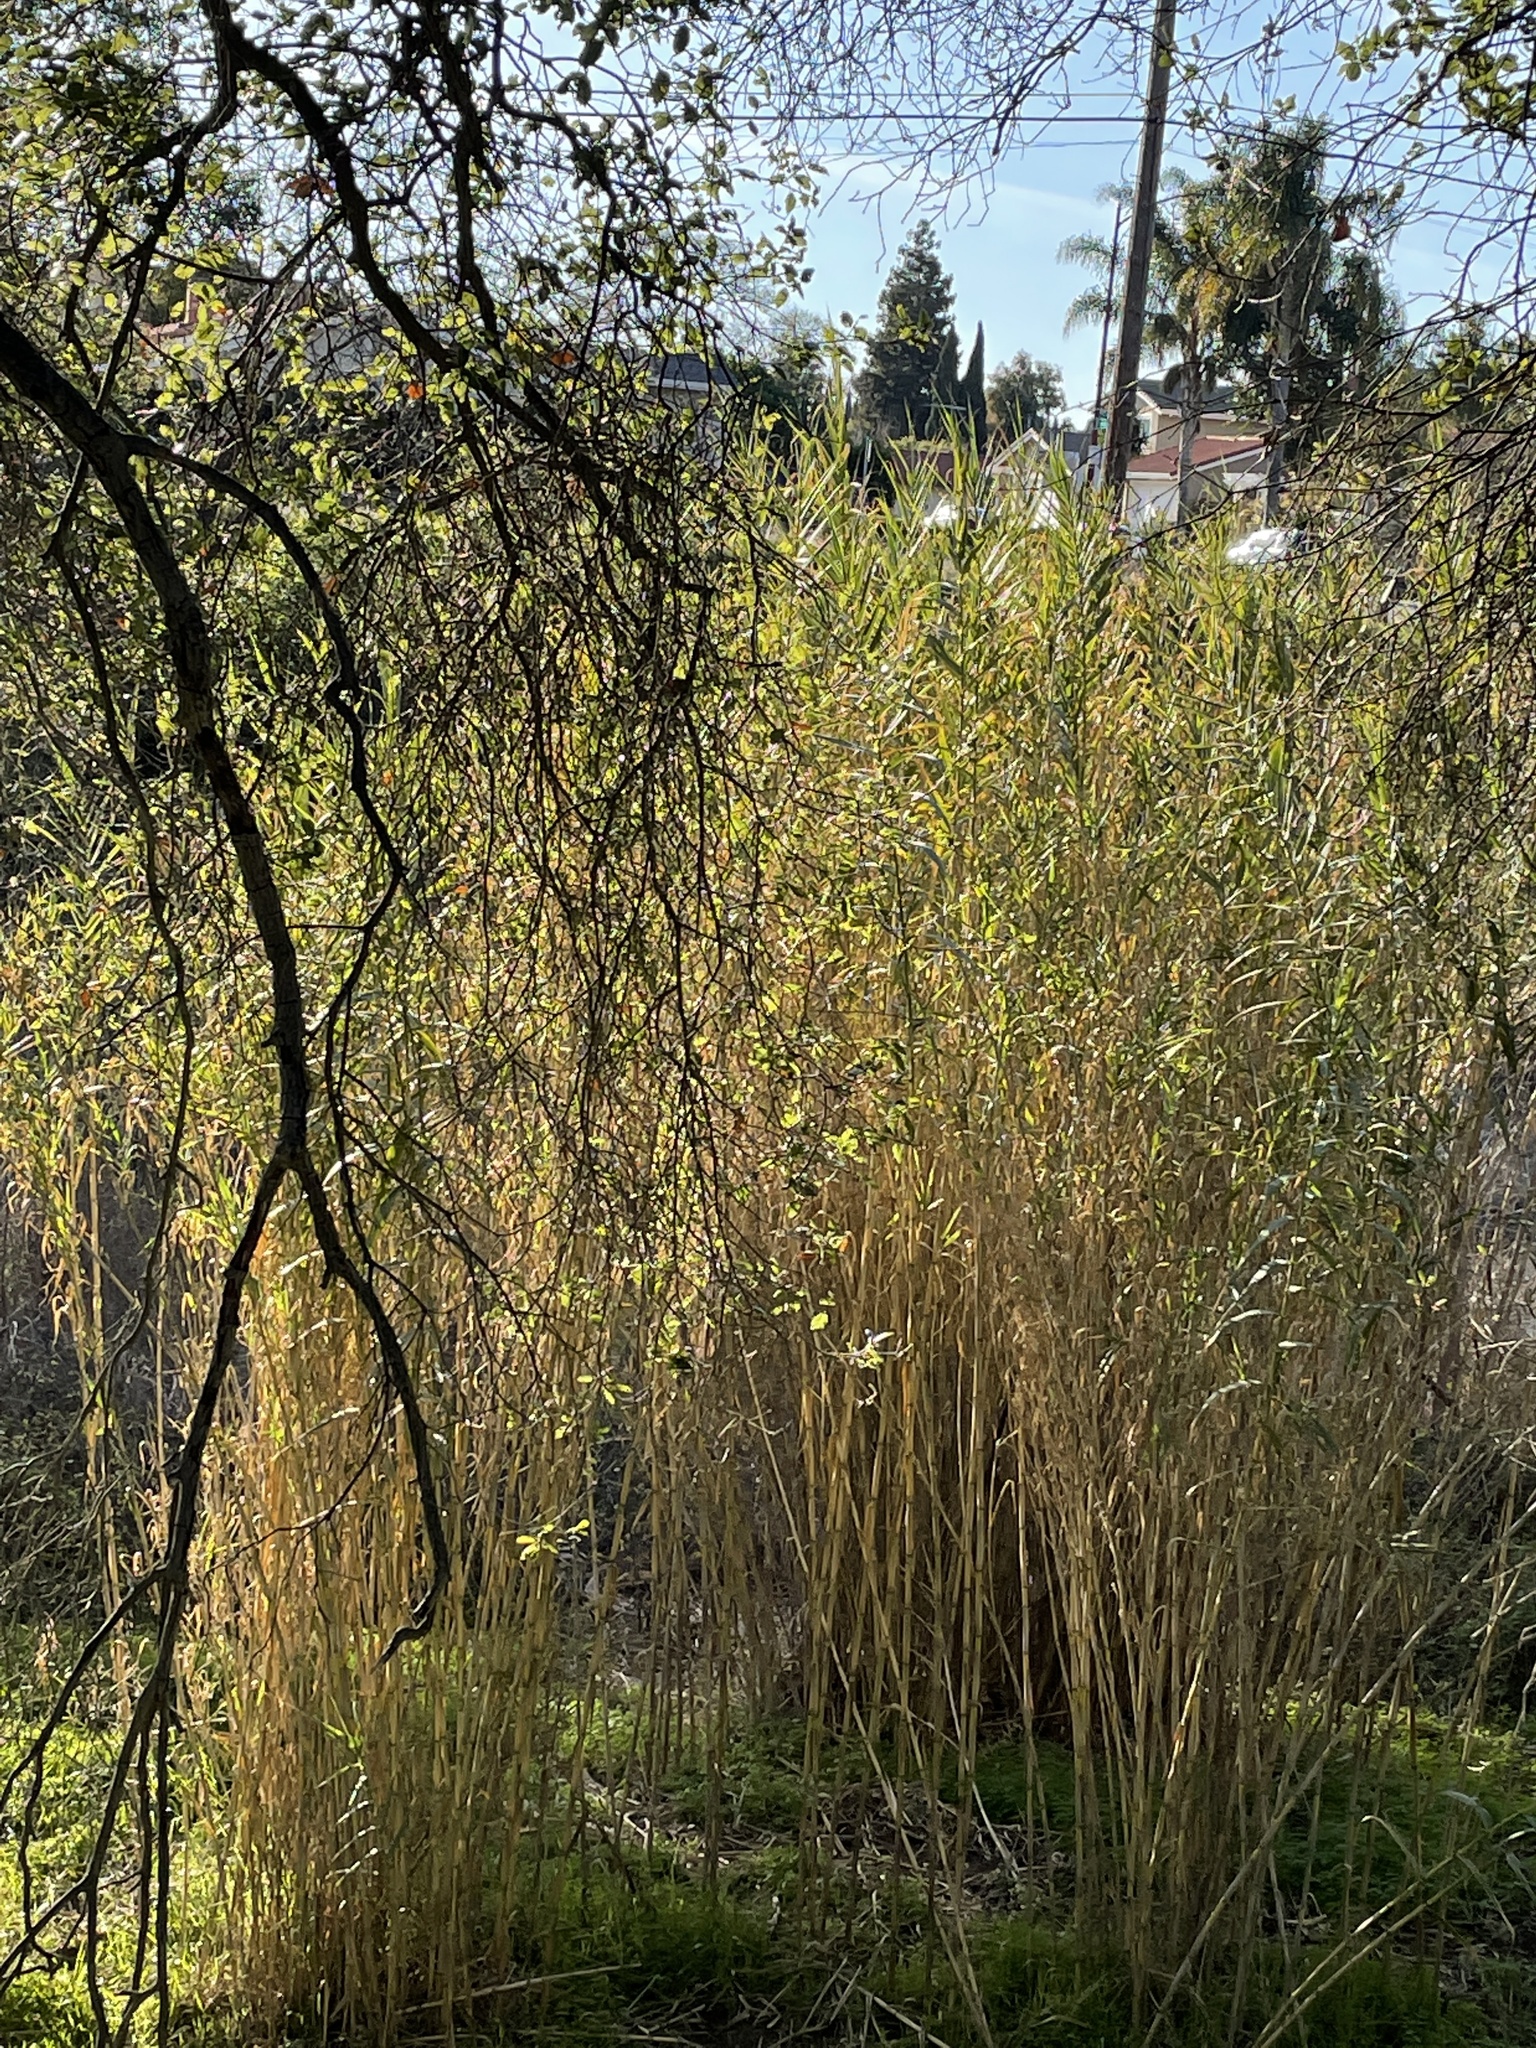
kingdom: Plantae
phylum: Tracheophyta
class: Liliopsida
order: Poales
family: Poaceae
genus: Arundo
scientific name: Arundo donax
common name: Giant reed
